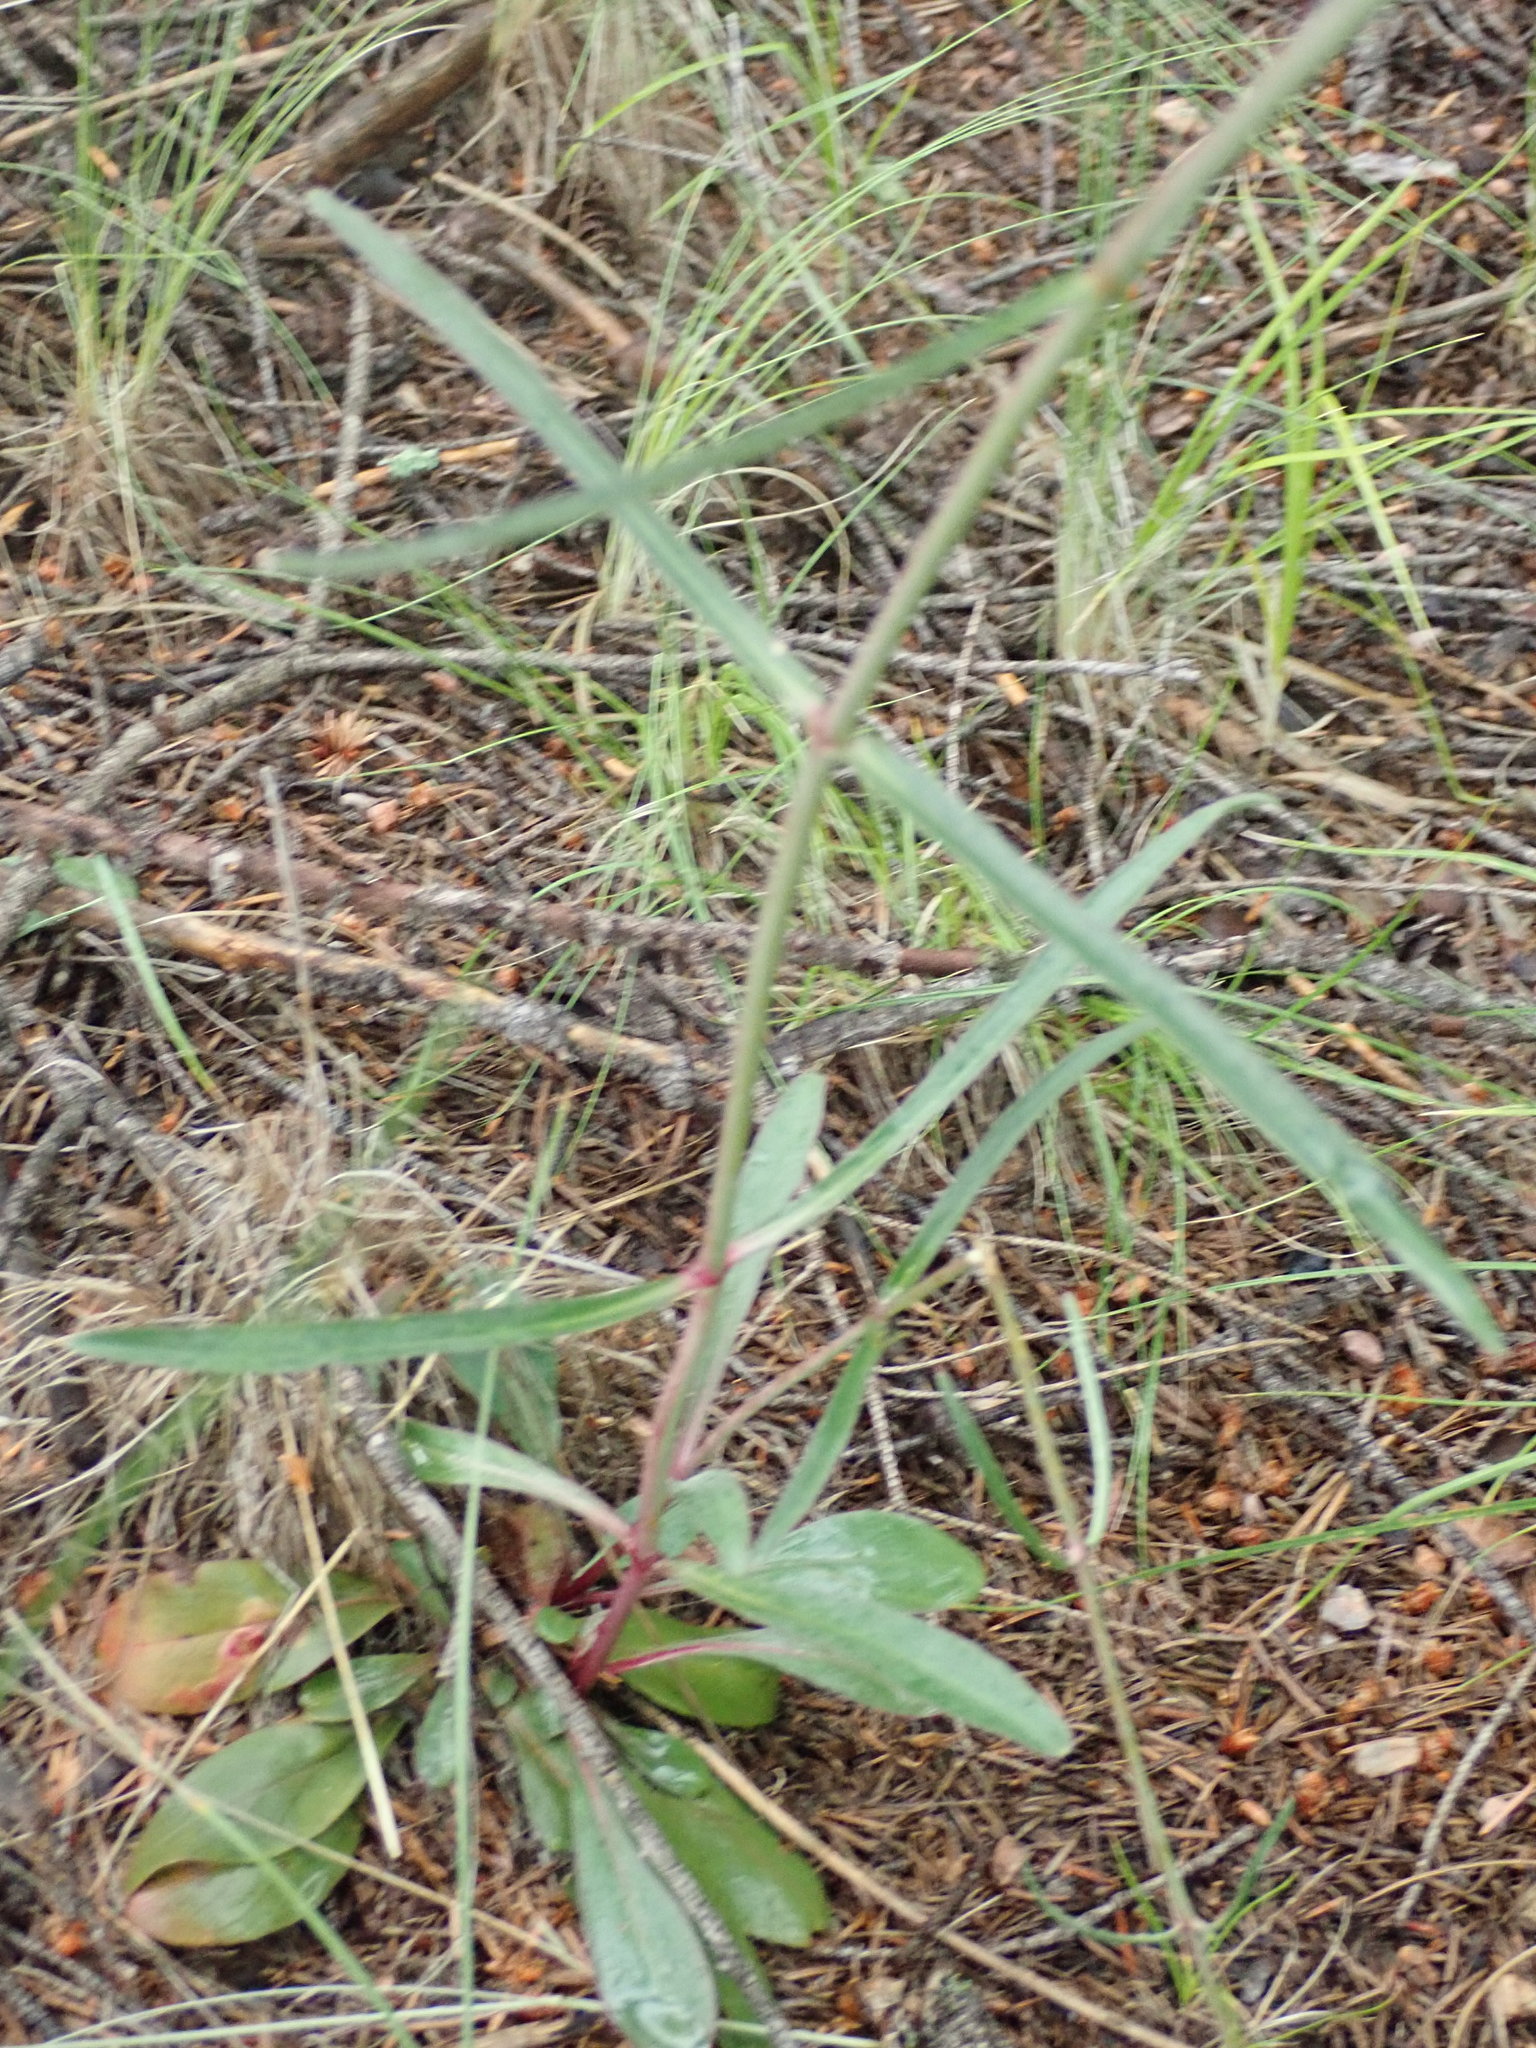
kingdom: Plantae
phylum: Tracheophyta
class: Magnoliopsida
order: Lamiales
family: Plantaginaceae
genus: Penstemon
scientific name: Penstemon barbatus
